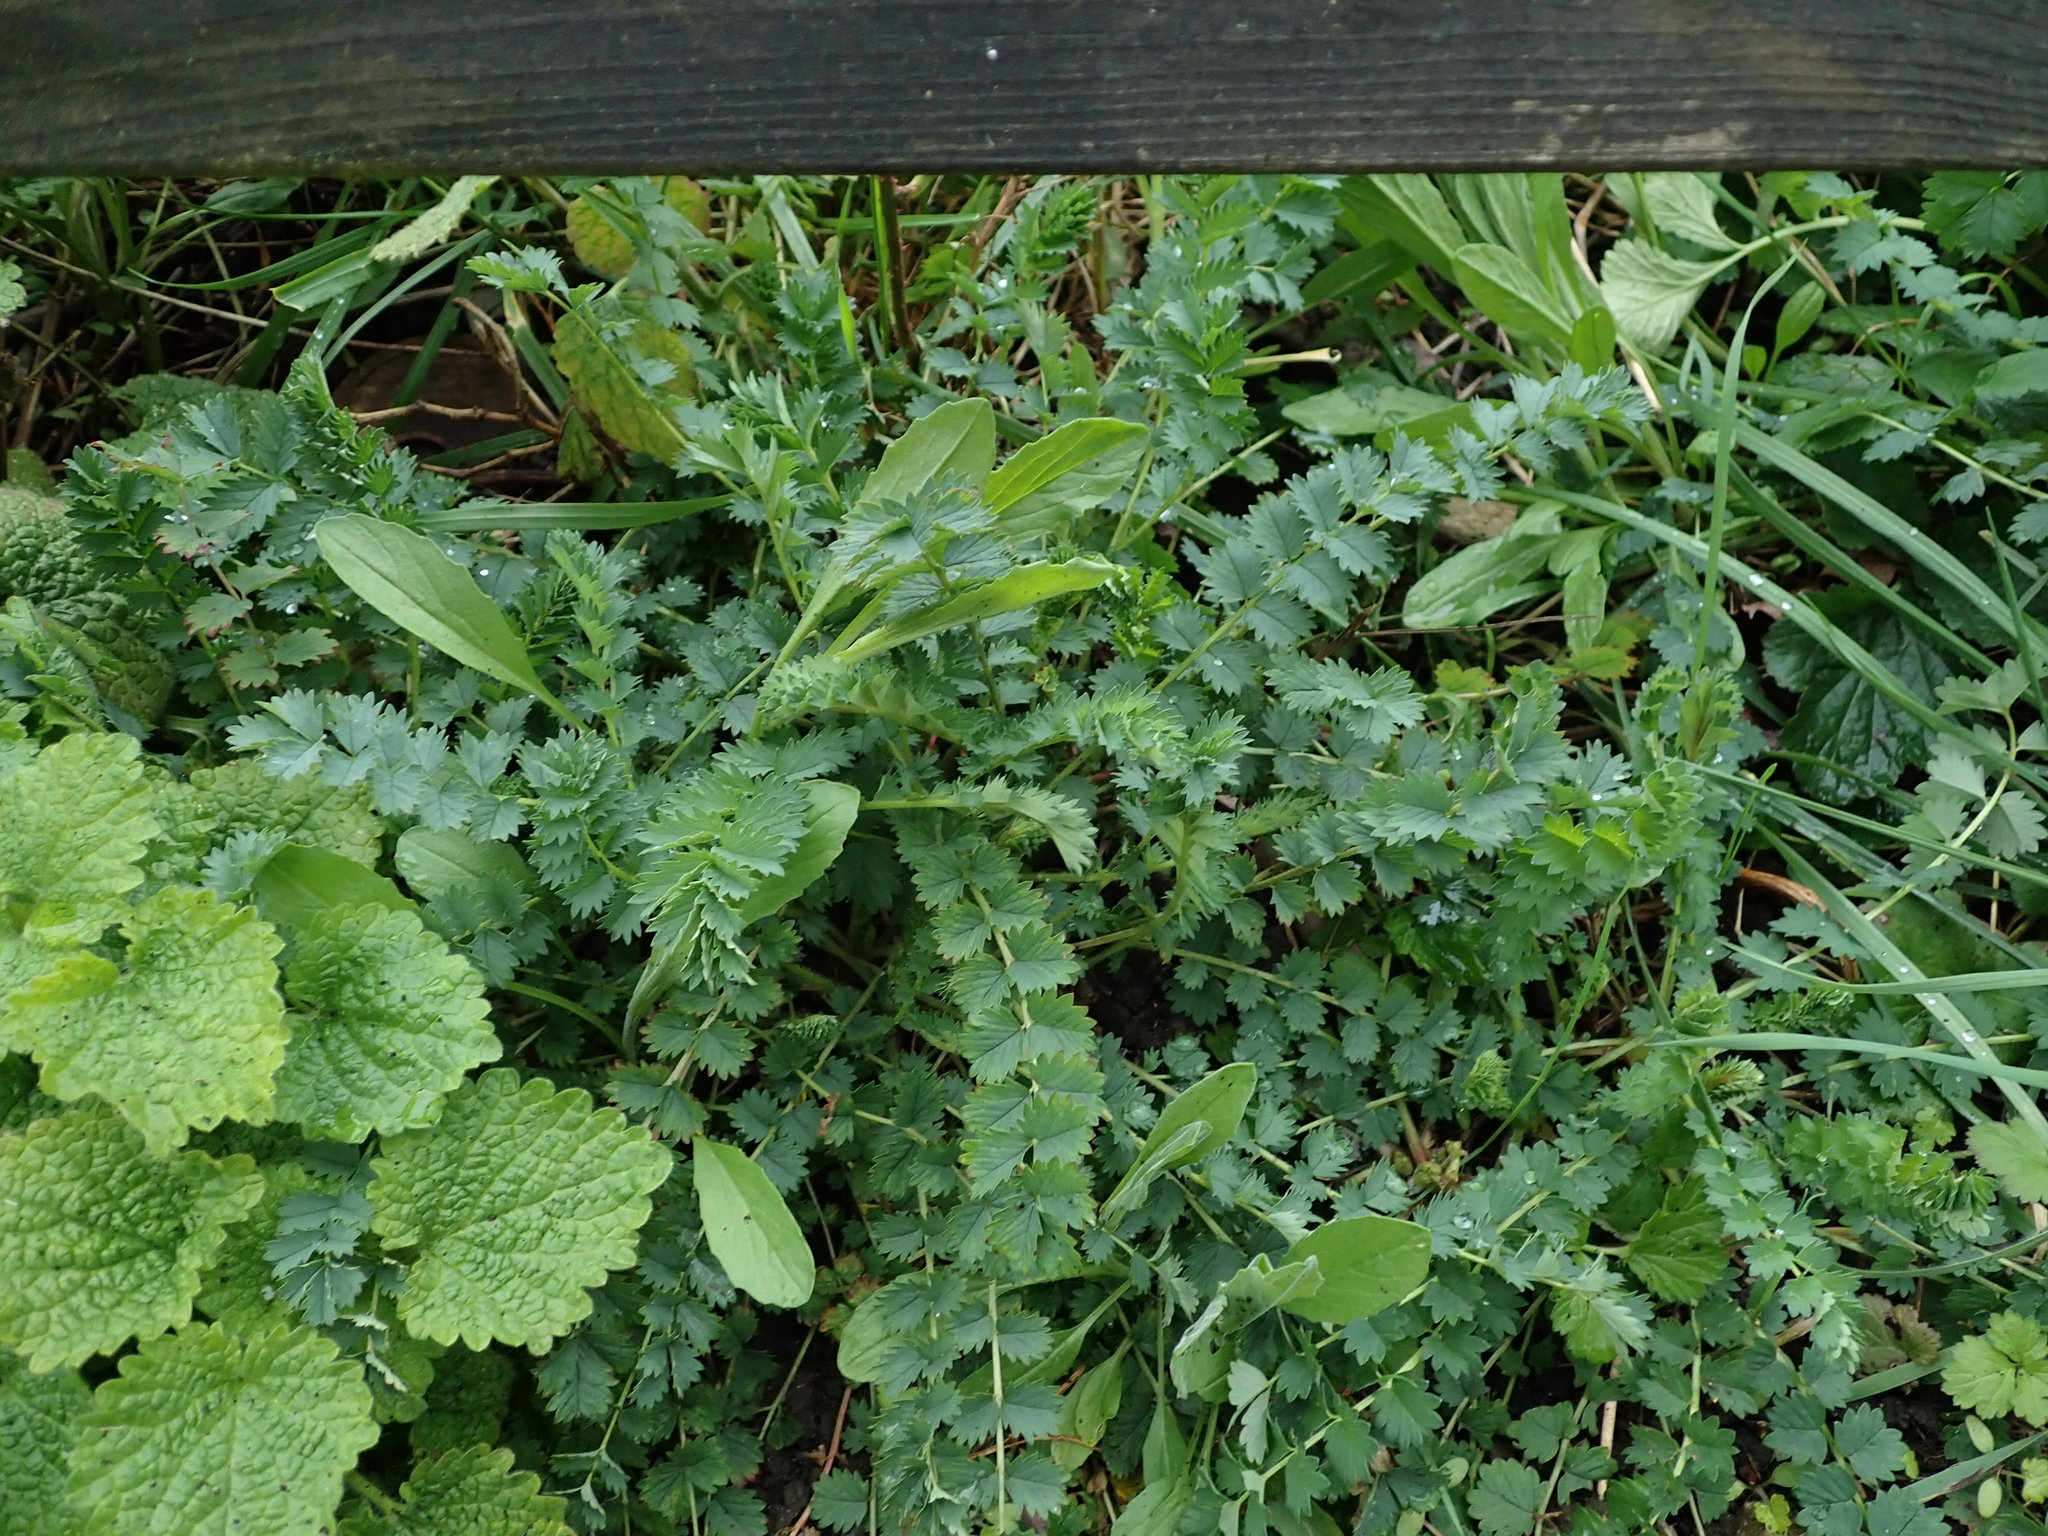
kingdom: Plantae
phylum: Tracheophyta
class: Magnoliopsida
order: Rosales
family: Rosaceae
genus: Poterium
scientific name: Poterium sanguisorba
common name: Salad burnet
